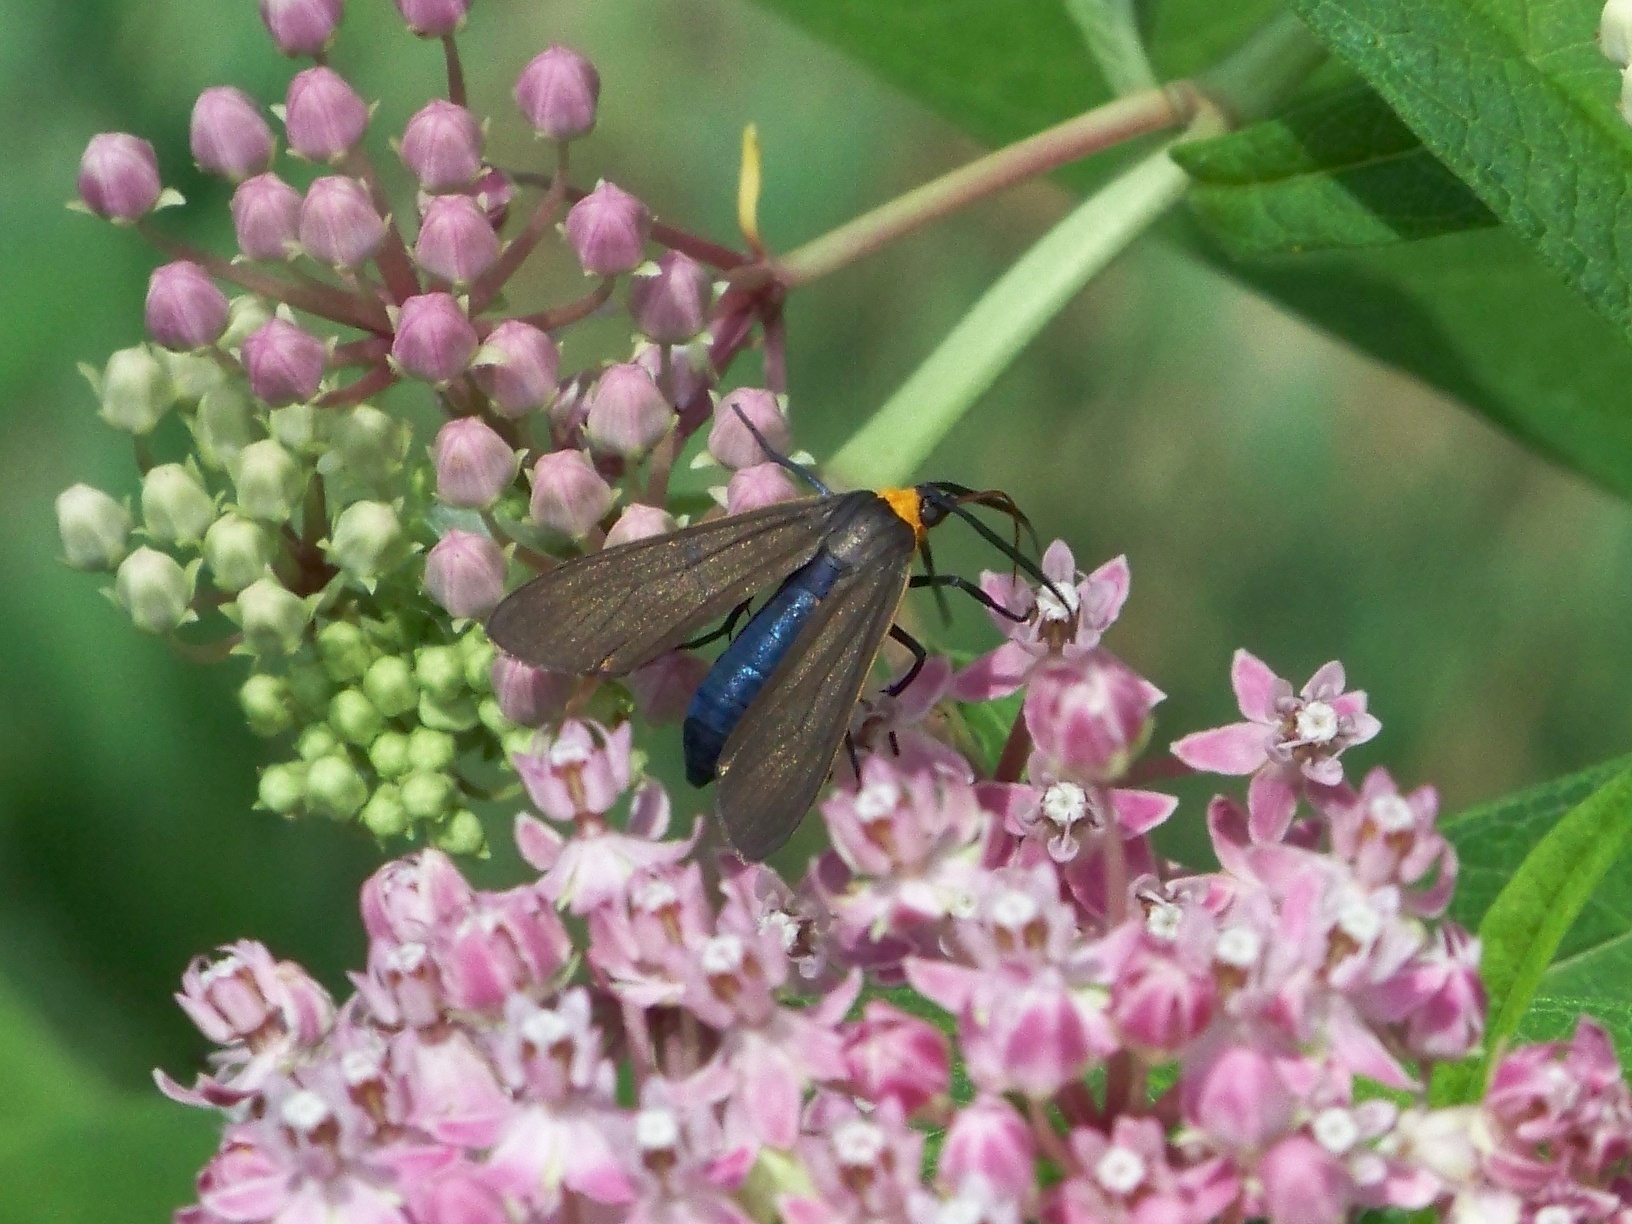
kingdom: Animalia
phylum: Arthropoda
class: Insecta
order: Lepidoptera
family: Erebidae
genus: Cisseps
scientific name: Cisseps fulvicollis
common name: Yellow-collared scape moth
